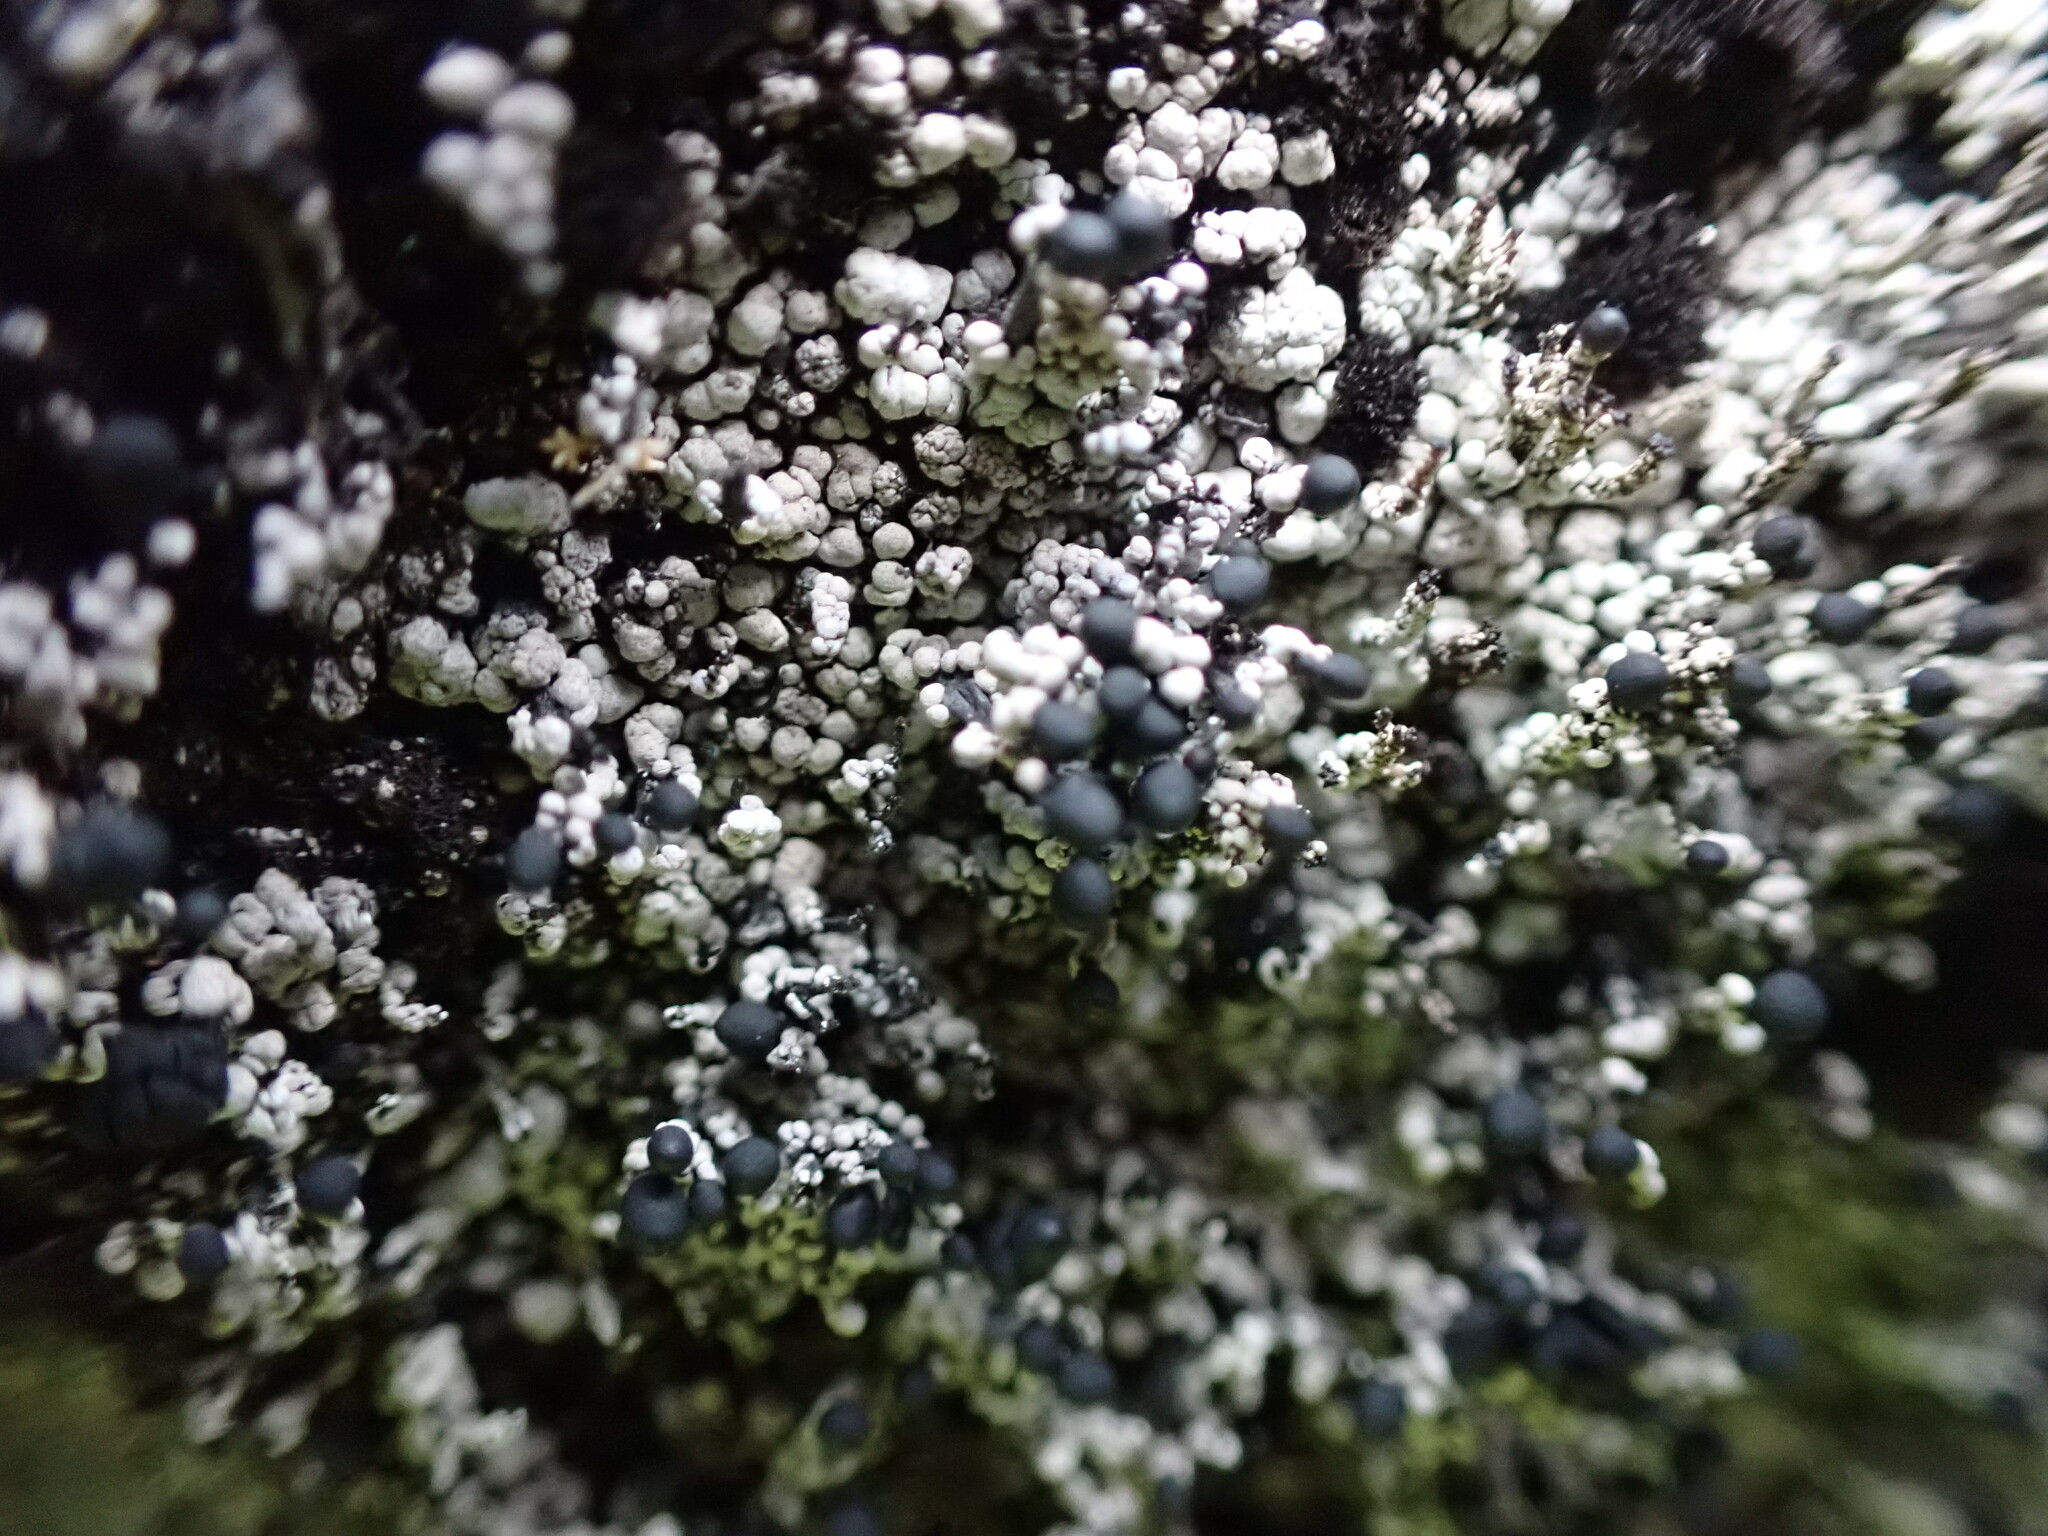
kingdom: Fungi
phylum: Ascomycota
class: Lecanoromycetes
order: Lecanorales
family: Cladoniaceae
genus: Pilophorus
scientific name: Pilophorus nigricaulis
